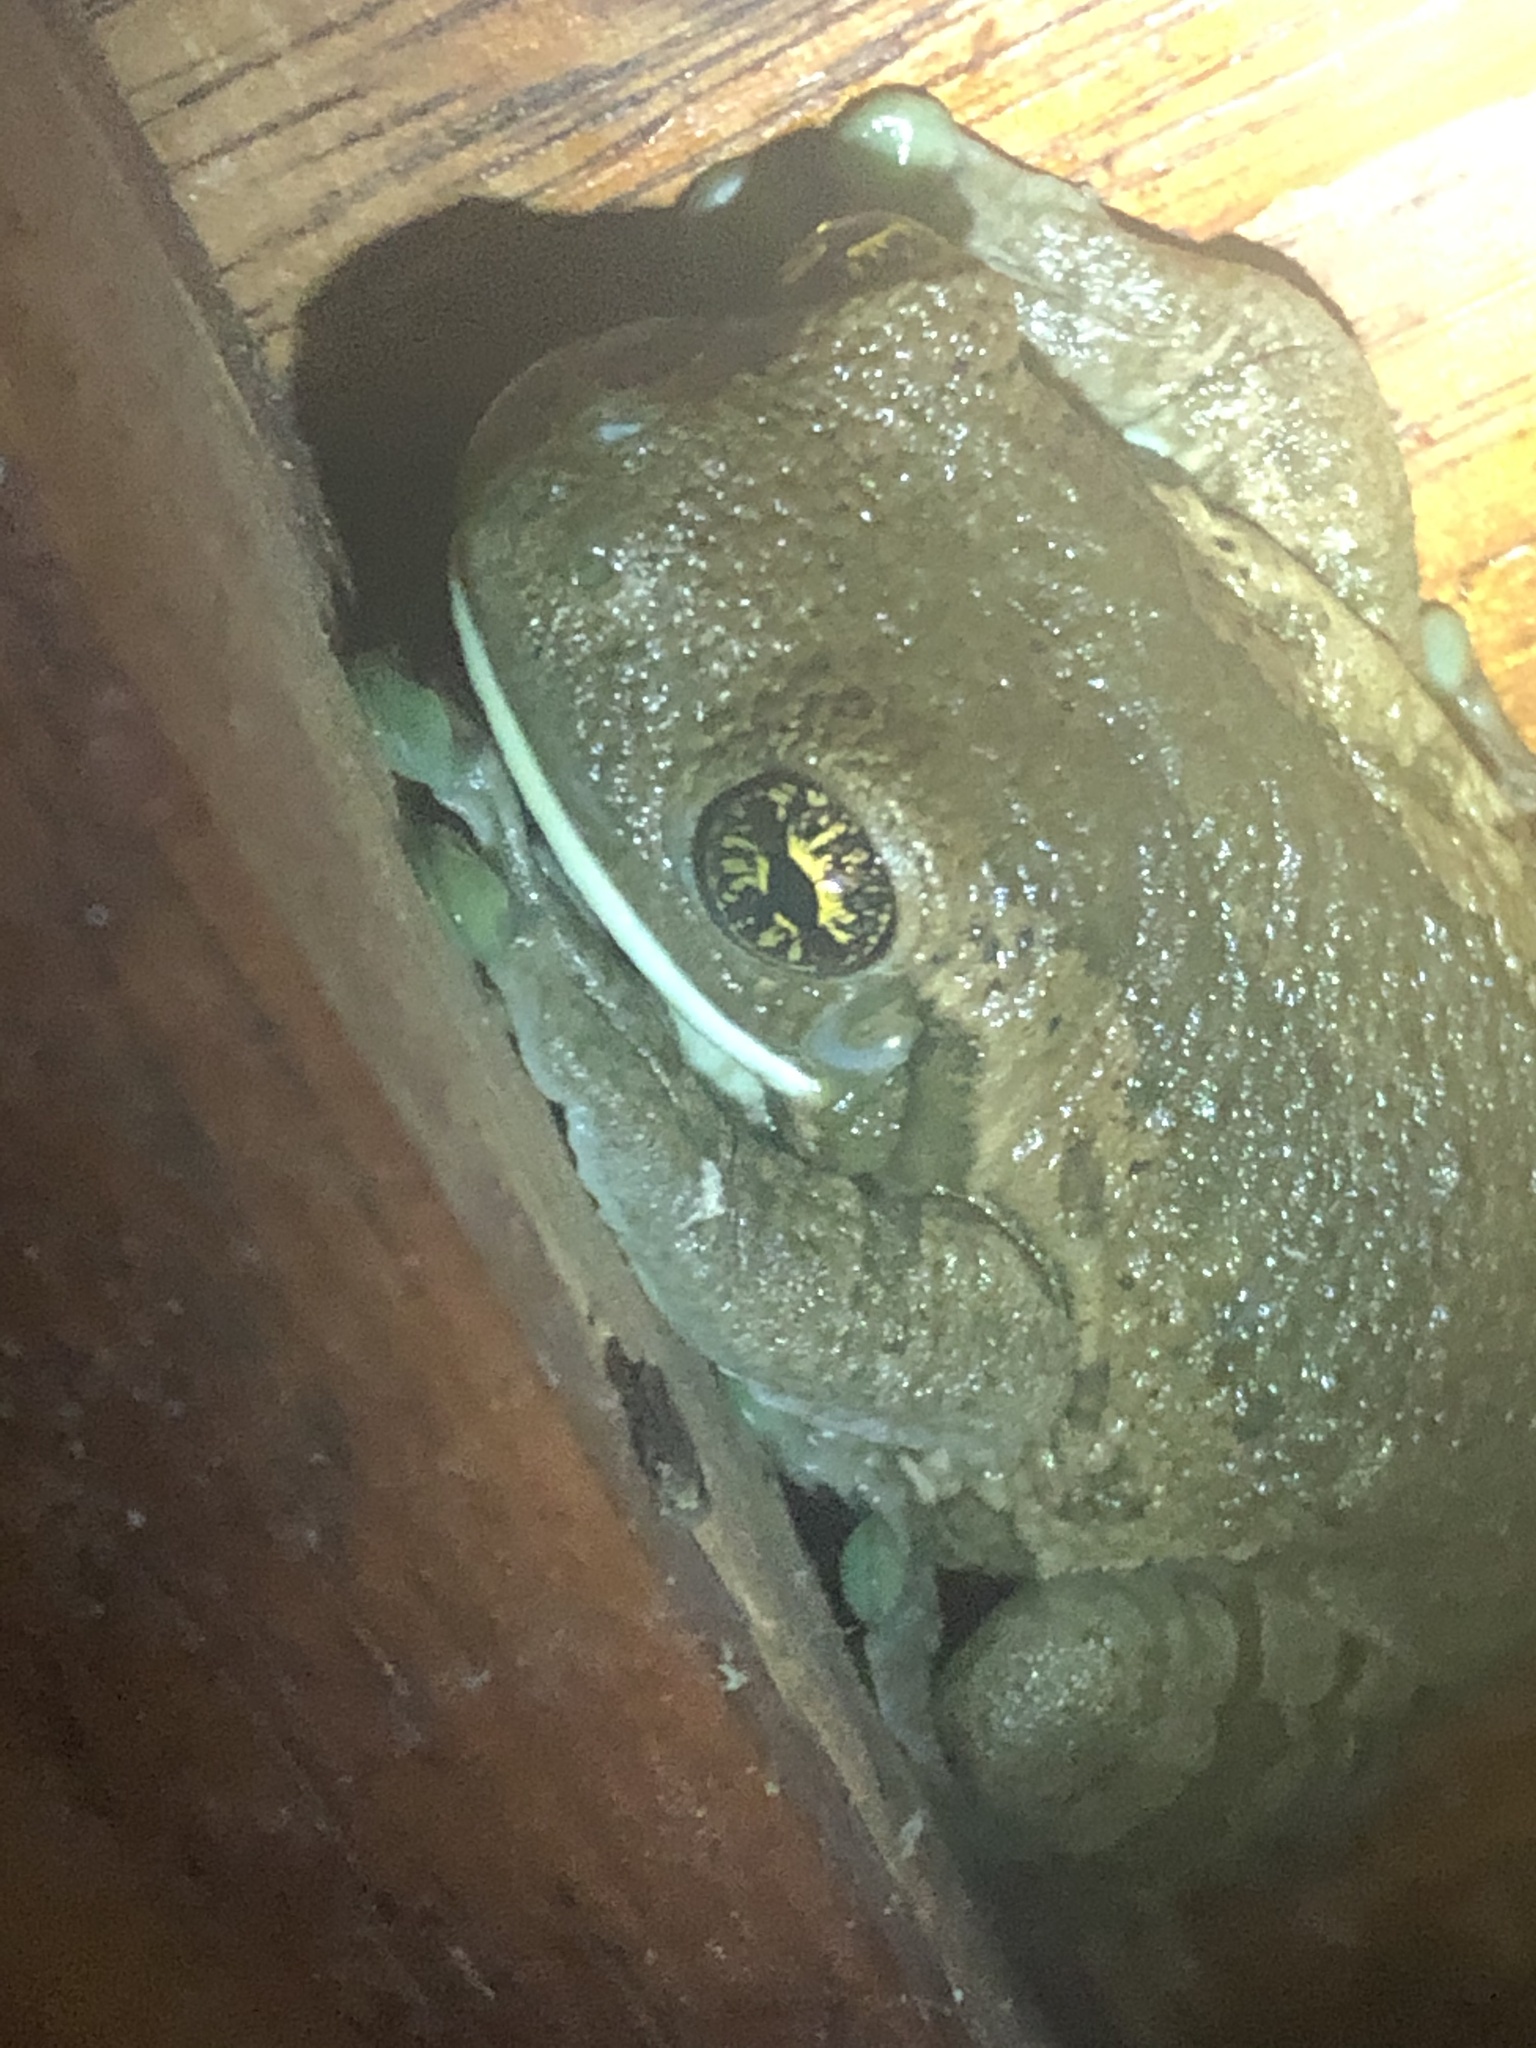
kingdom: Animalia
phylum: Chordata
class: Amphibia
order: Anura
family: Hylidae
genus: Trachycephalus
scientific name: Trachycephalus typhonius
